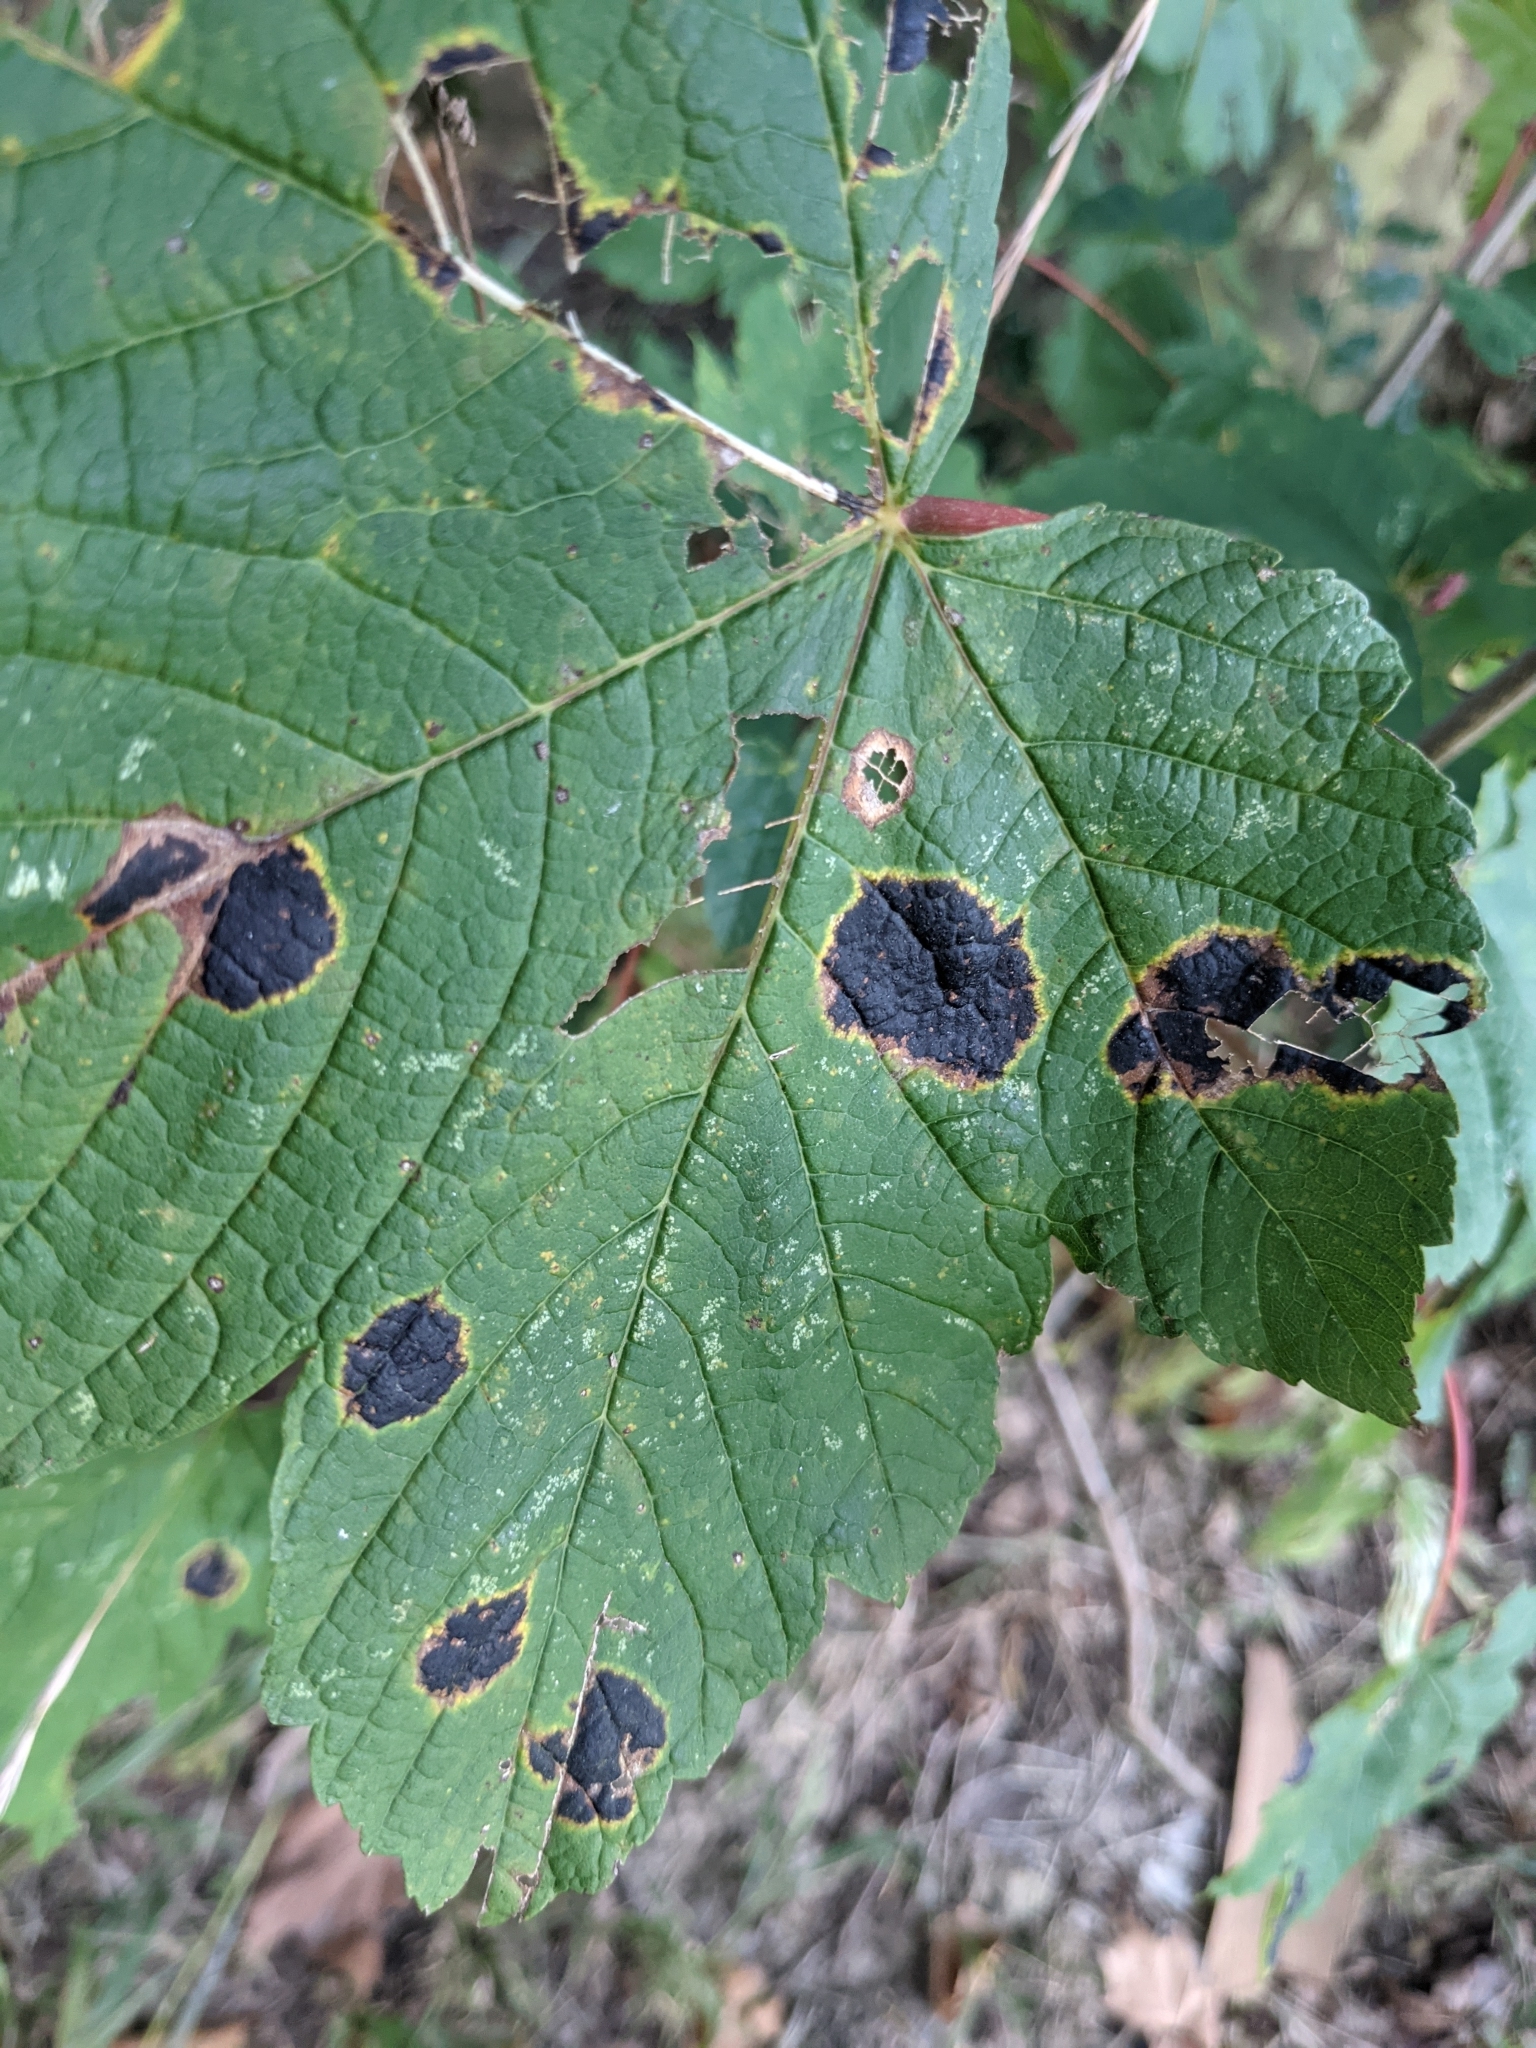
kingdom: Fungi
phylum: Ascomycota
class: Leotiomycetes
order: Rhytismatales
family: Rhytismataceae
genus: Rhytisma
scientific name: Rhytisma acerinum
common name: European tar spot
